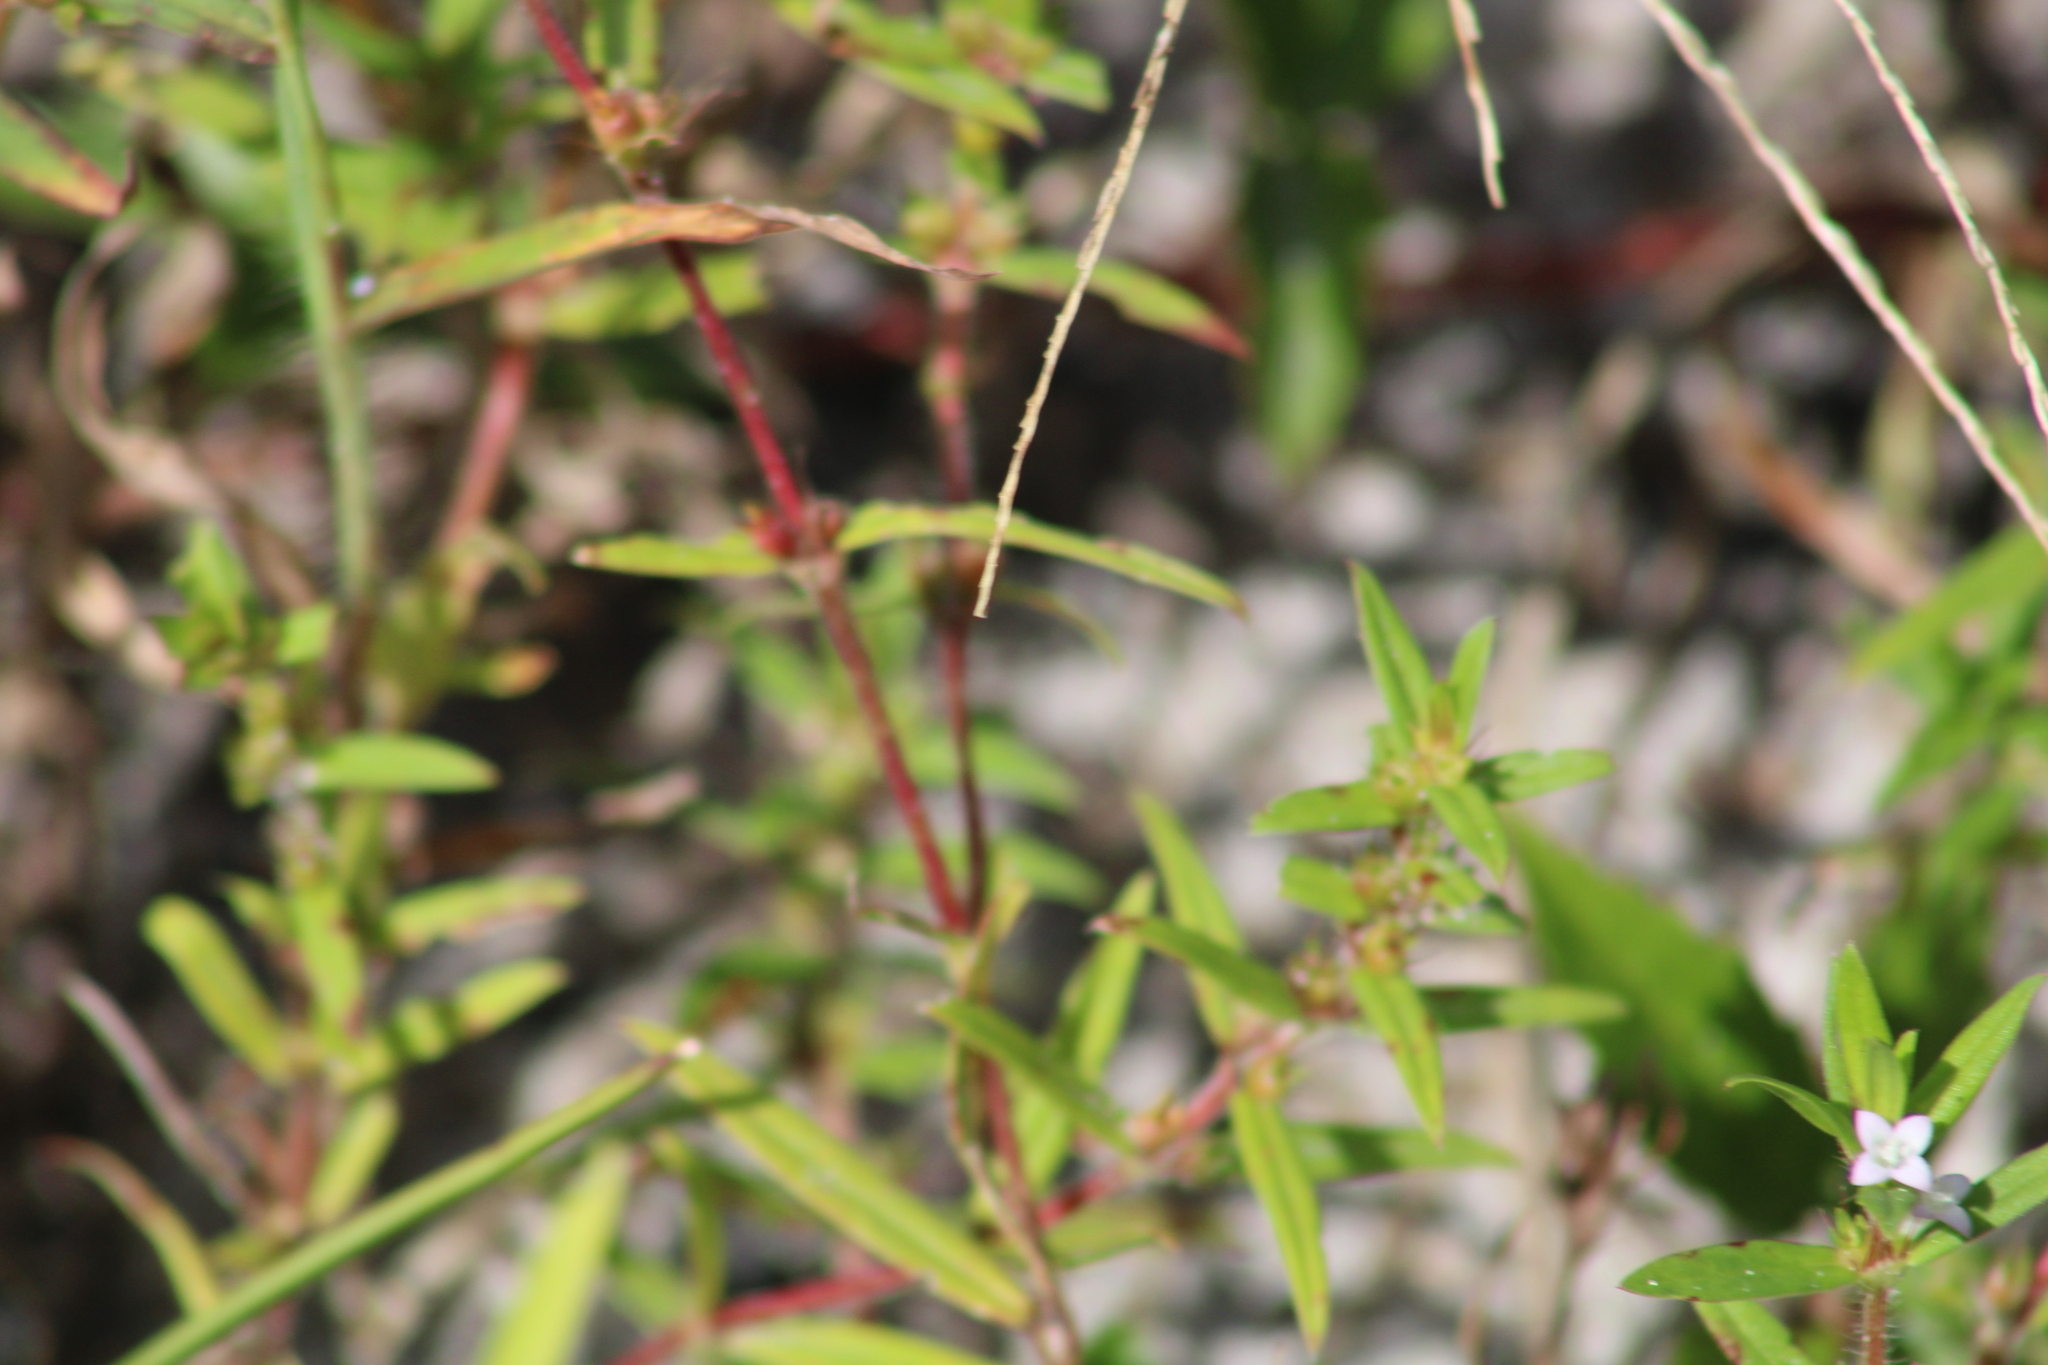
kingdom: Plantae
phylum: Tracheophyta
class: Magnoliopsida
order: Gentianales
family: Rubiaceae
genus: Hexasepalum
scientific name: Hexasepalum teres
